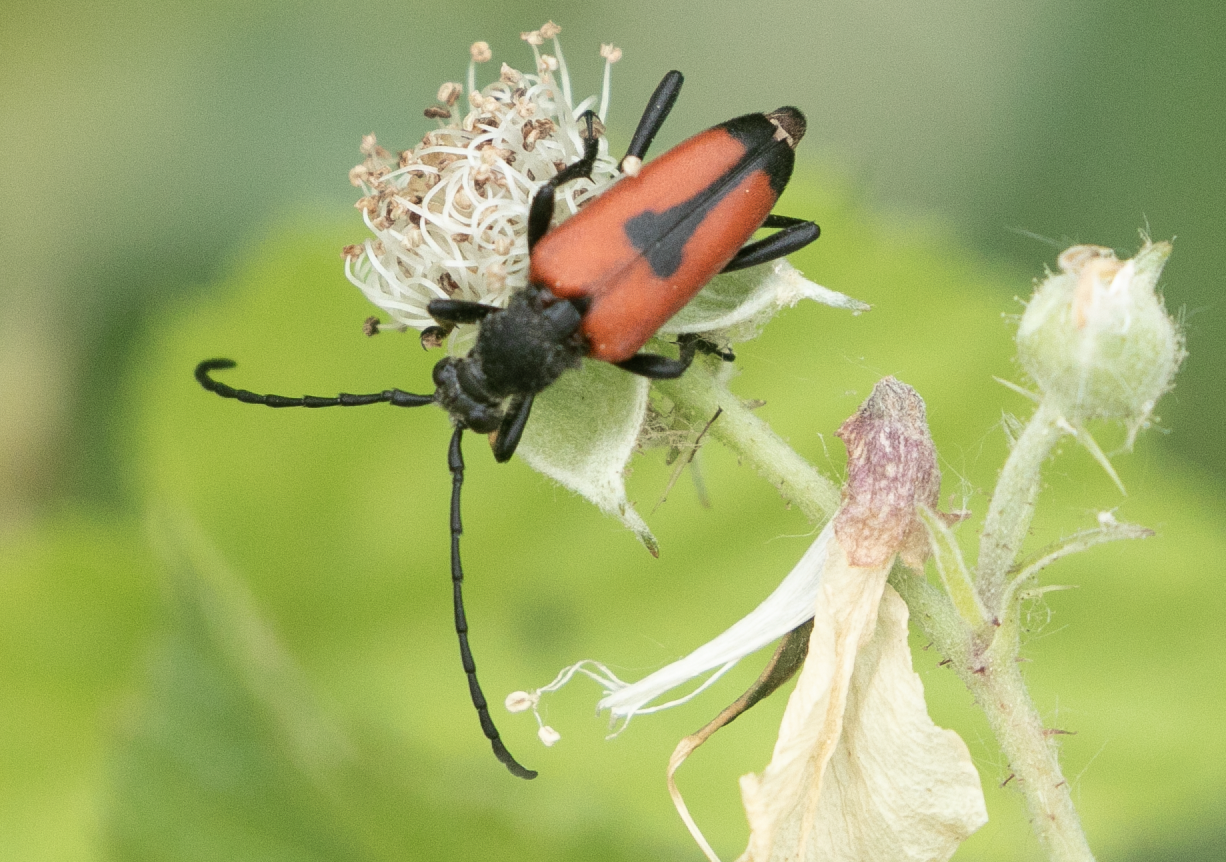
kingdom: Animalia
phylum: Arthropoda
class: Insecta
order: Coleoptera
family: Cerambycidae
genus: Stictoleptura
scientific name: Stictoleptura cordigera
